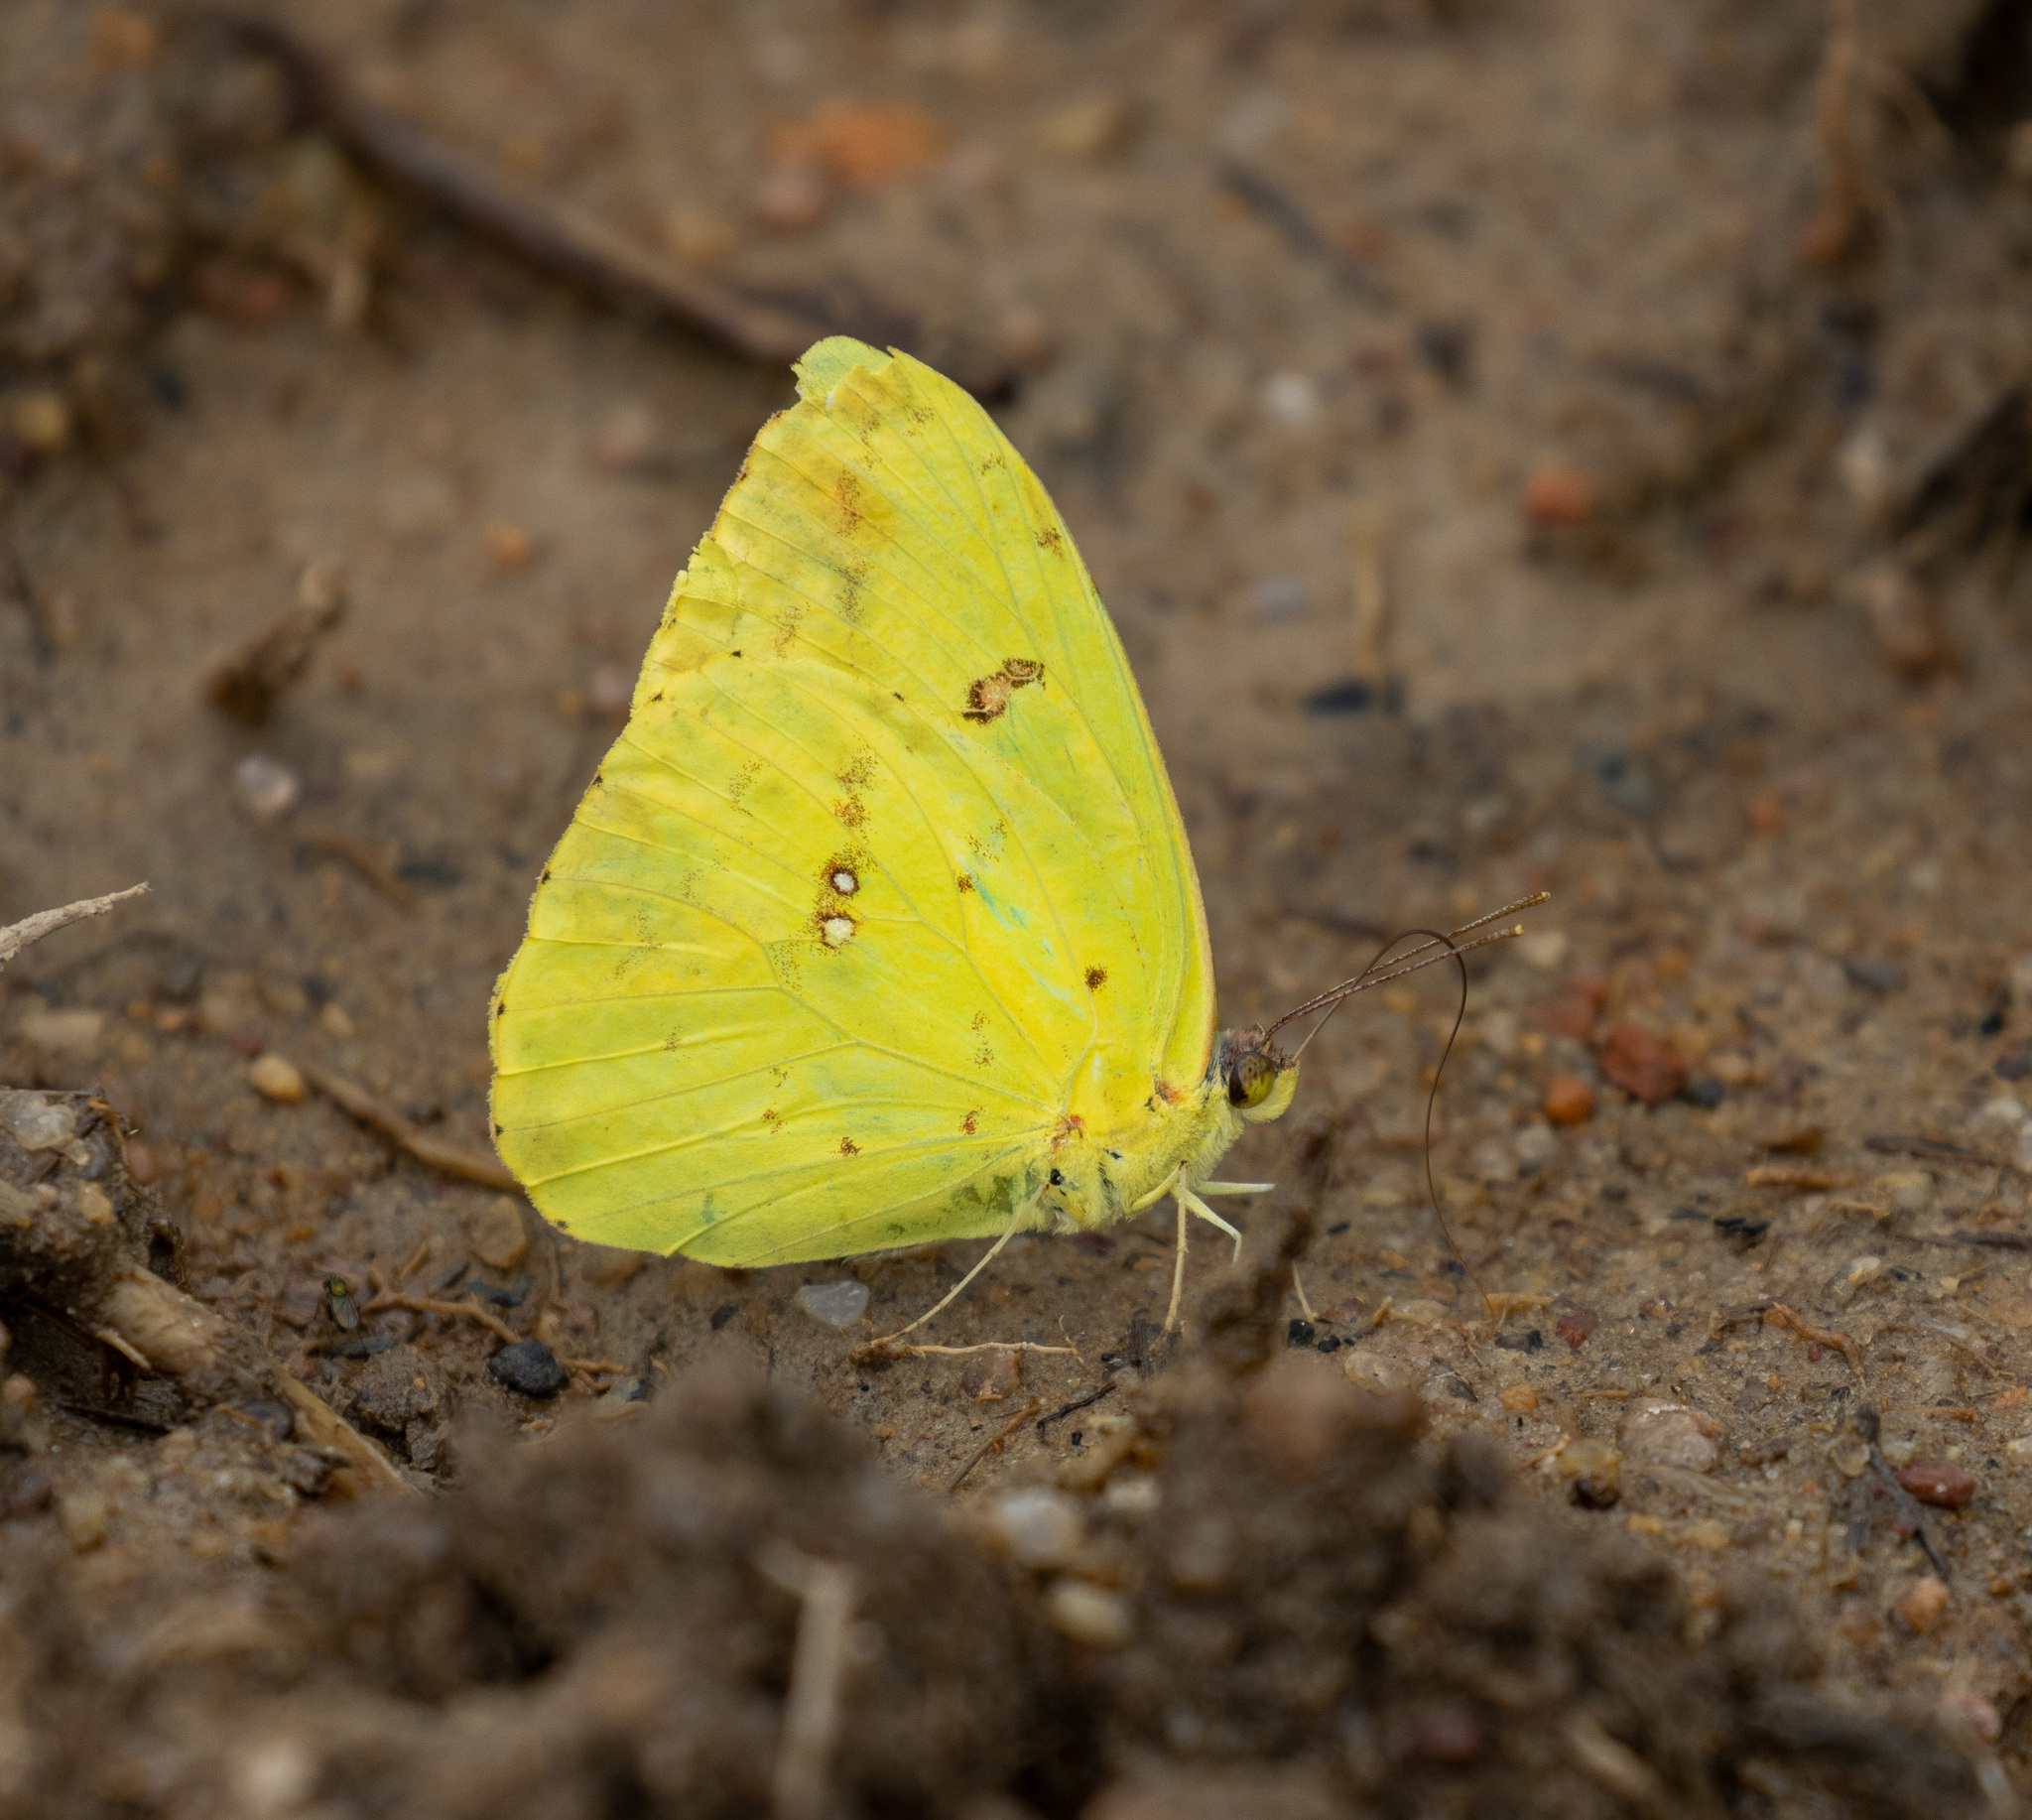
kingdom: Animalia
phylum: Arthropoda
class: Insecta
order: Lepidoptera
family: Pieridae
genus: Phoebis
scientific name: Phoebis marcellina
